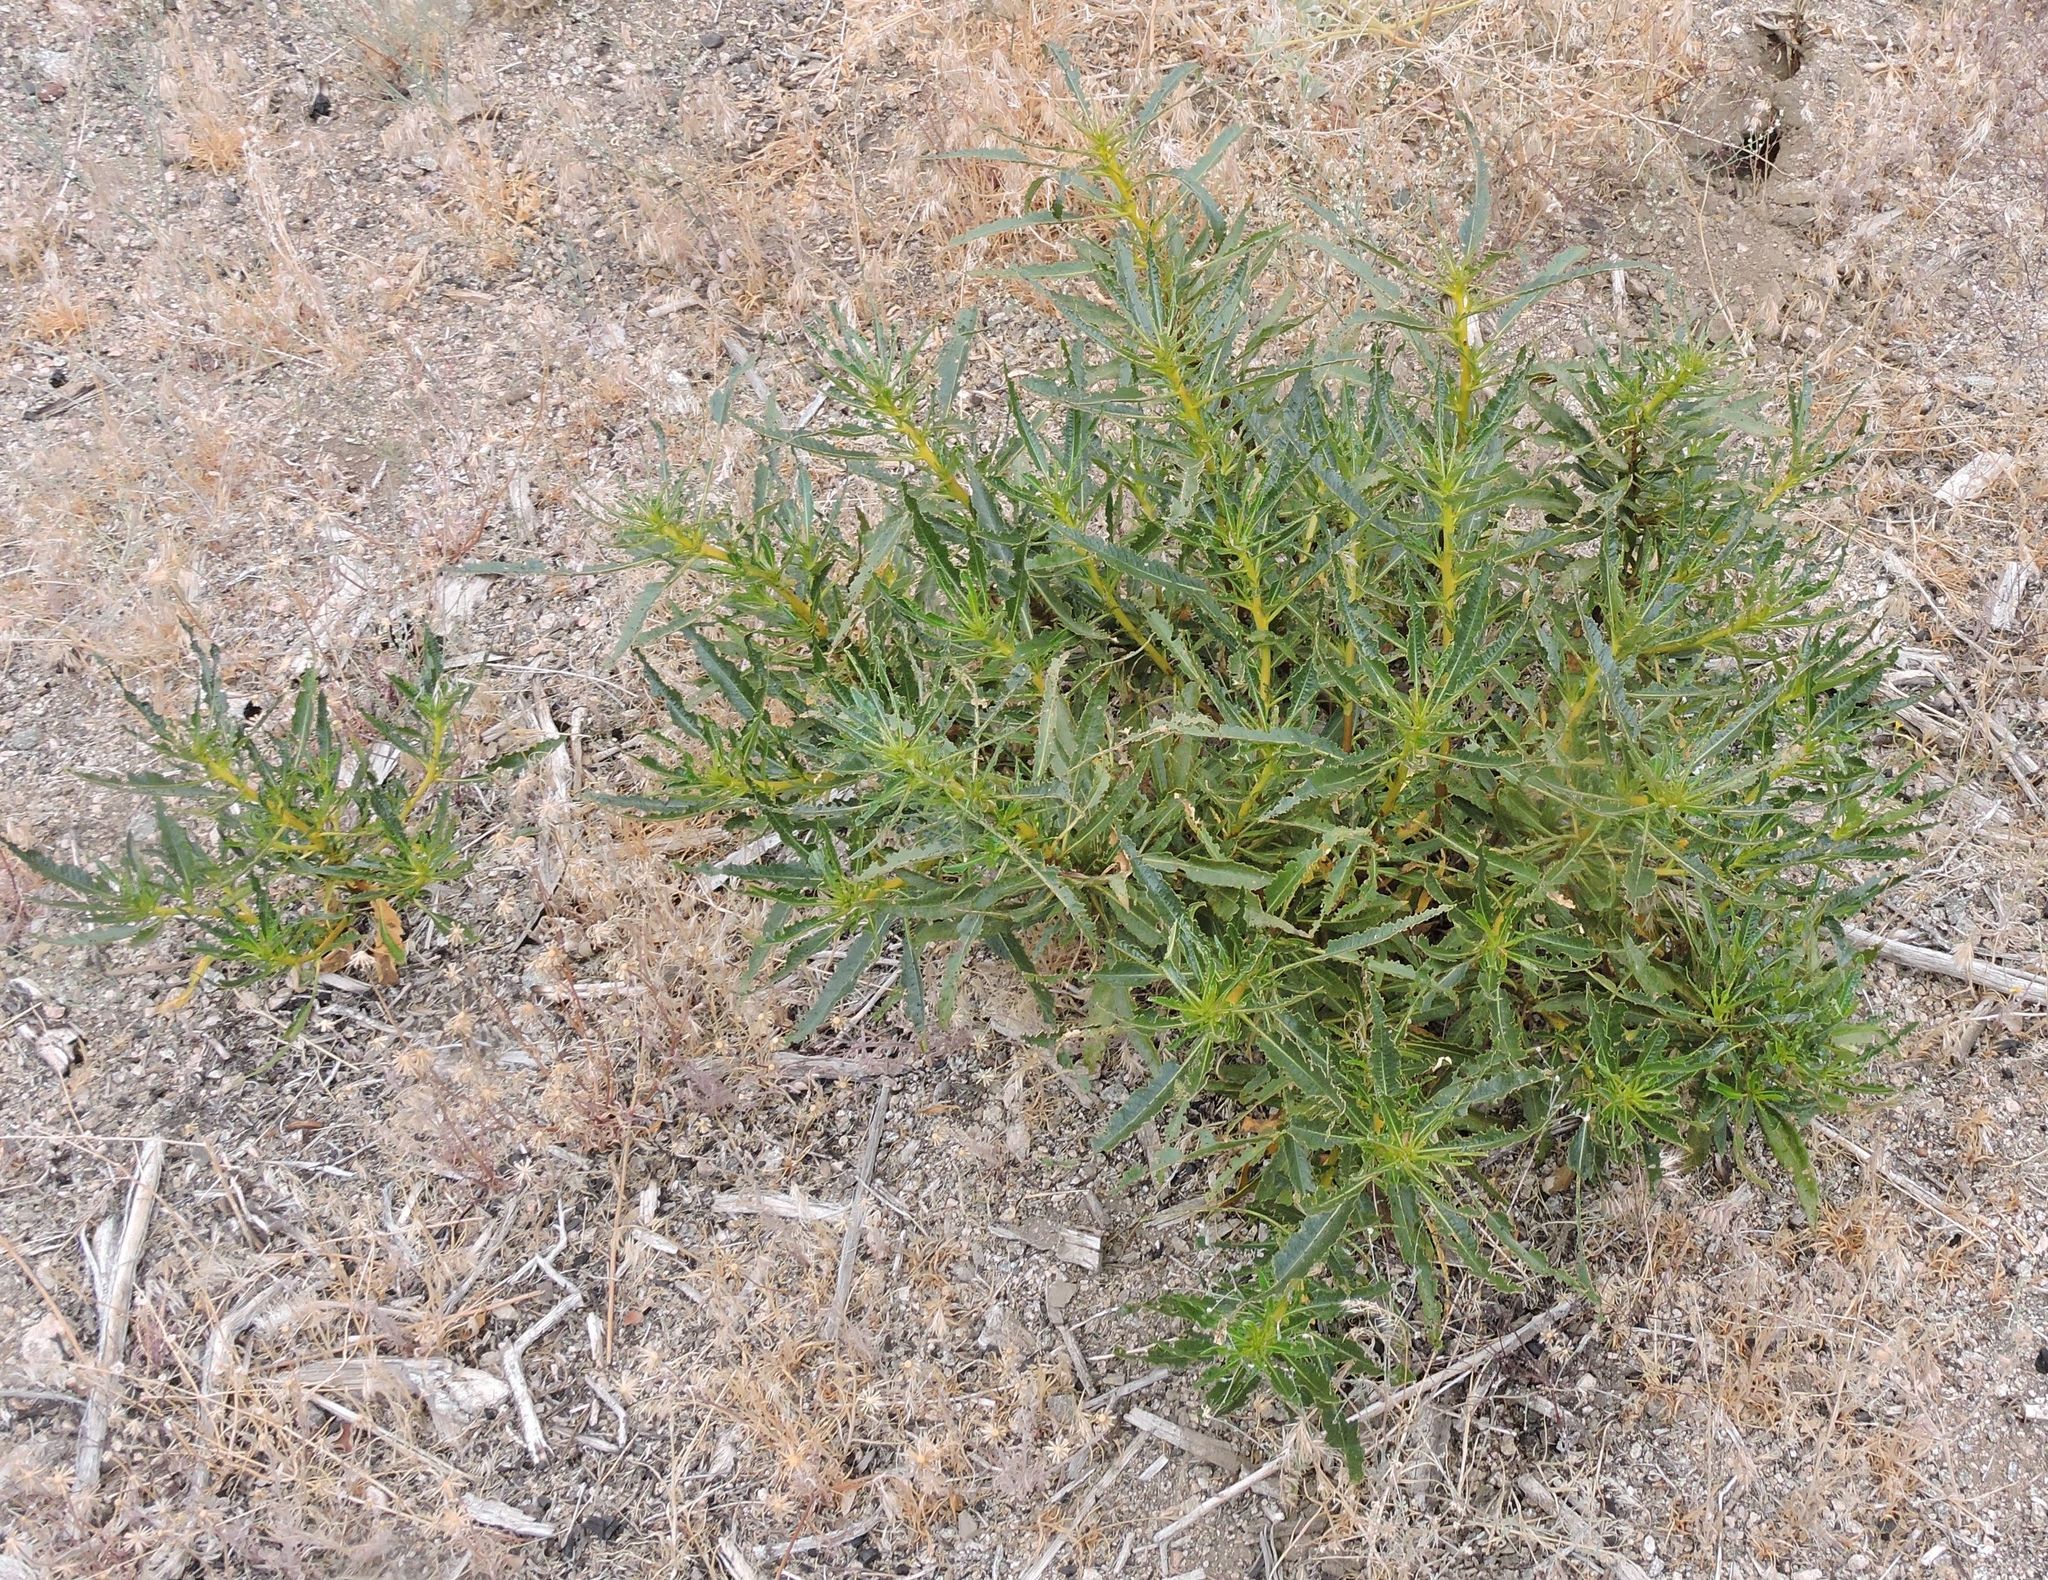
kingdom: Plantae
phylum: Tracheophyta
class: Magnoliopsida
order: Boraginales
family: Namaceae
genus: Eriodictyon
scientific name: Eriodictyon trichocalyx
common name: Hairy yerba-santa
